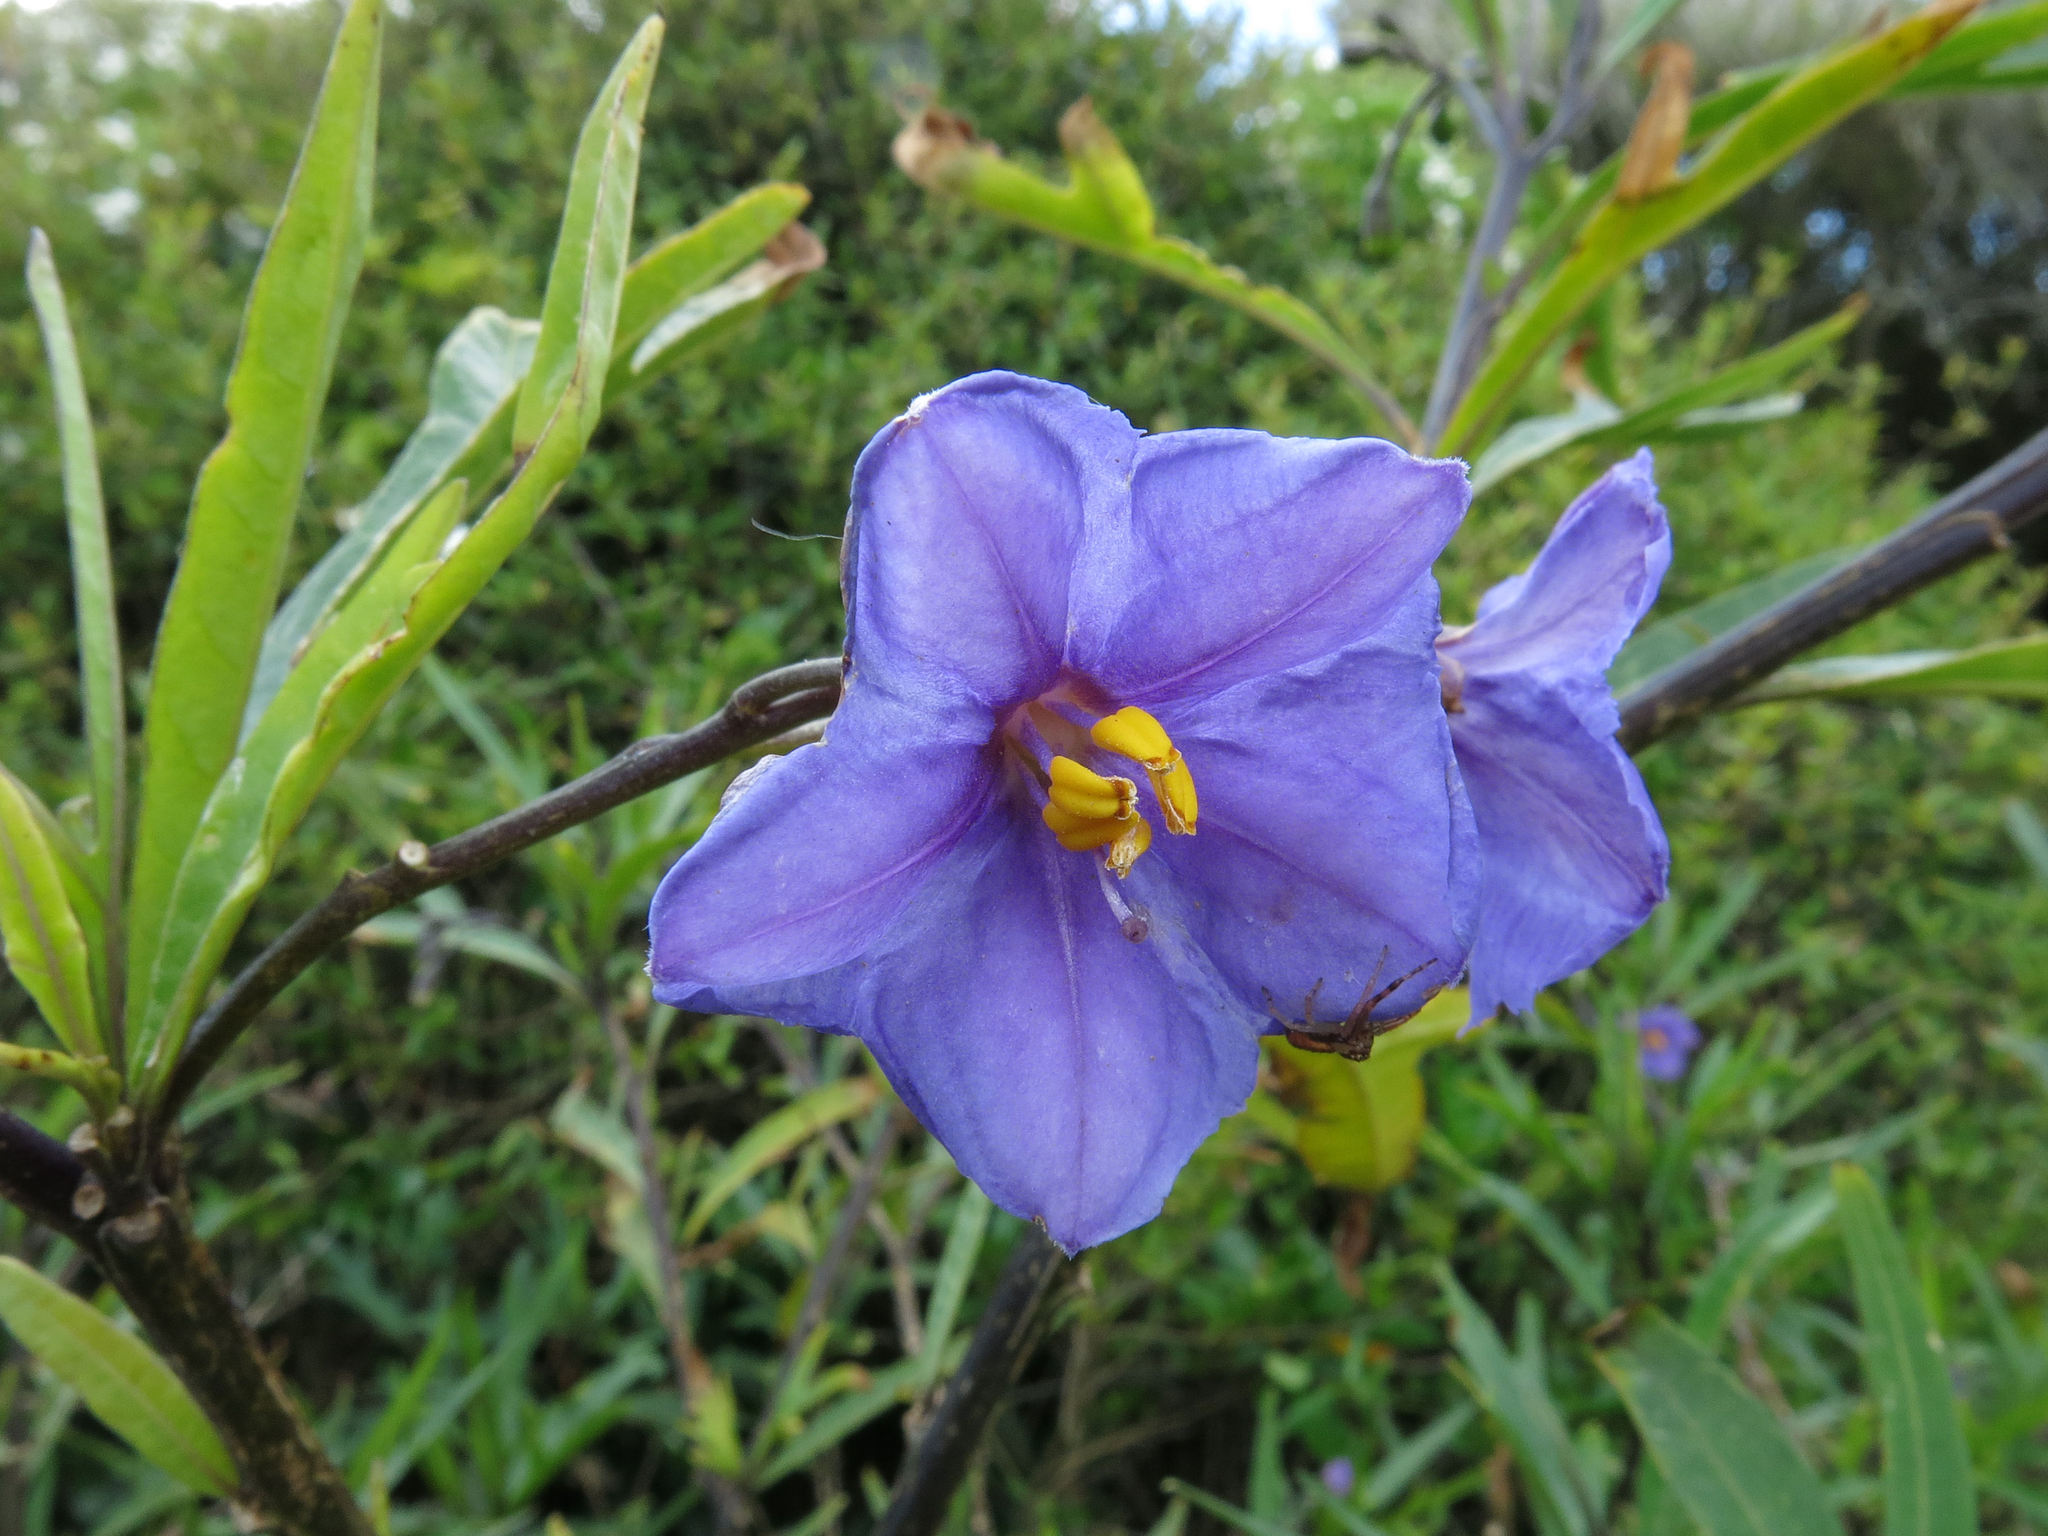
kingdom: Plantae
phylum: Tracheophyta
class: Magnoliopsida
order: Solanales
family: Solanaceae
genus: Solanum
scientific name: Solanum laciniatum
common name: Kangaroo-apple
